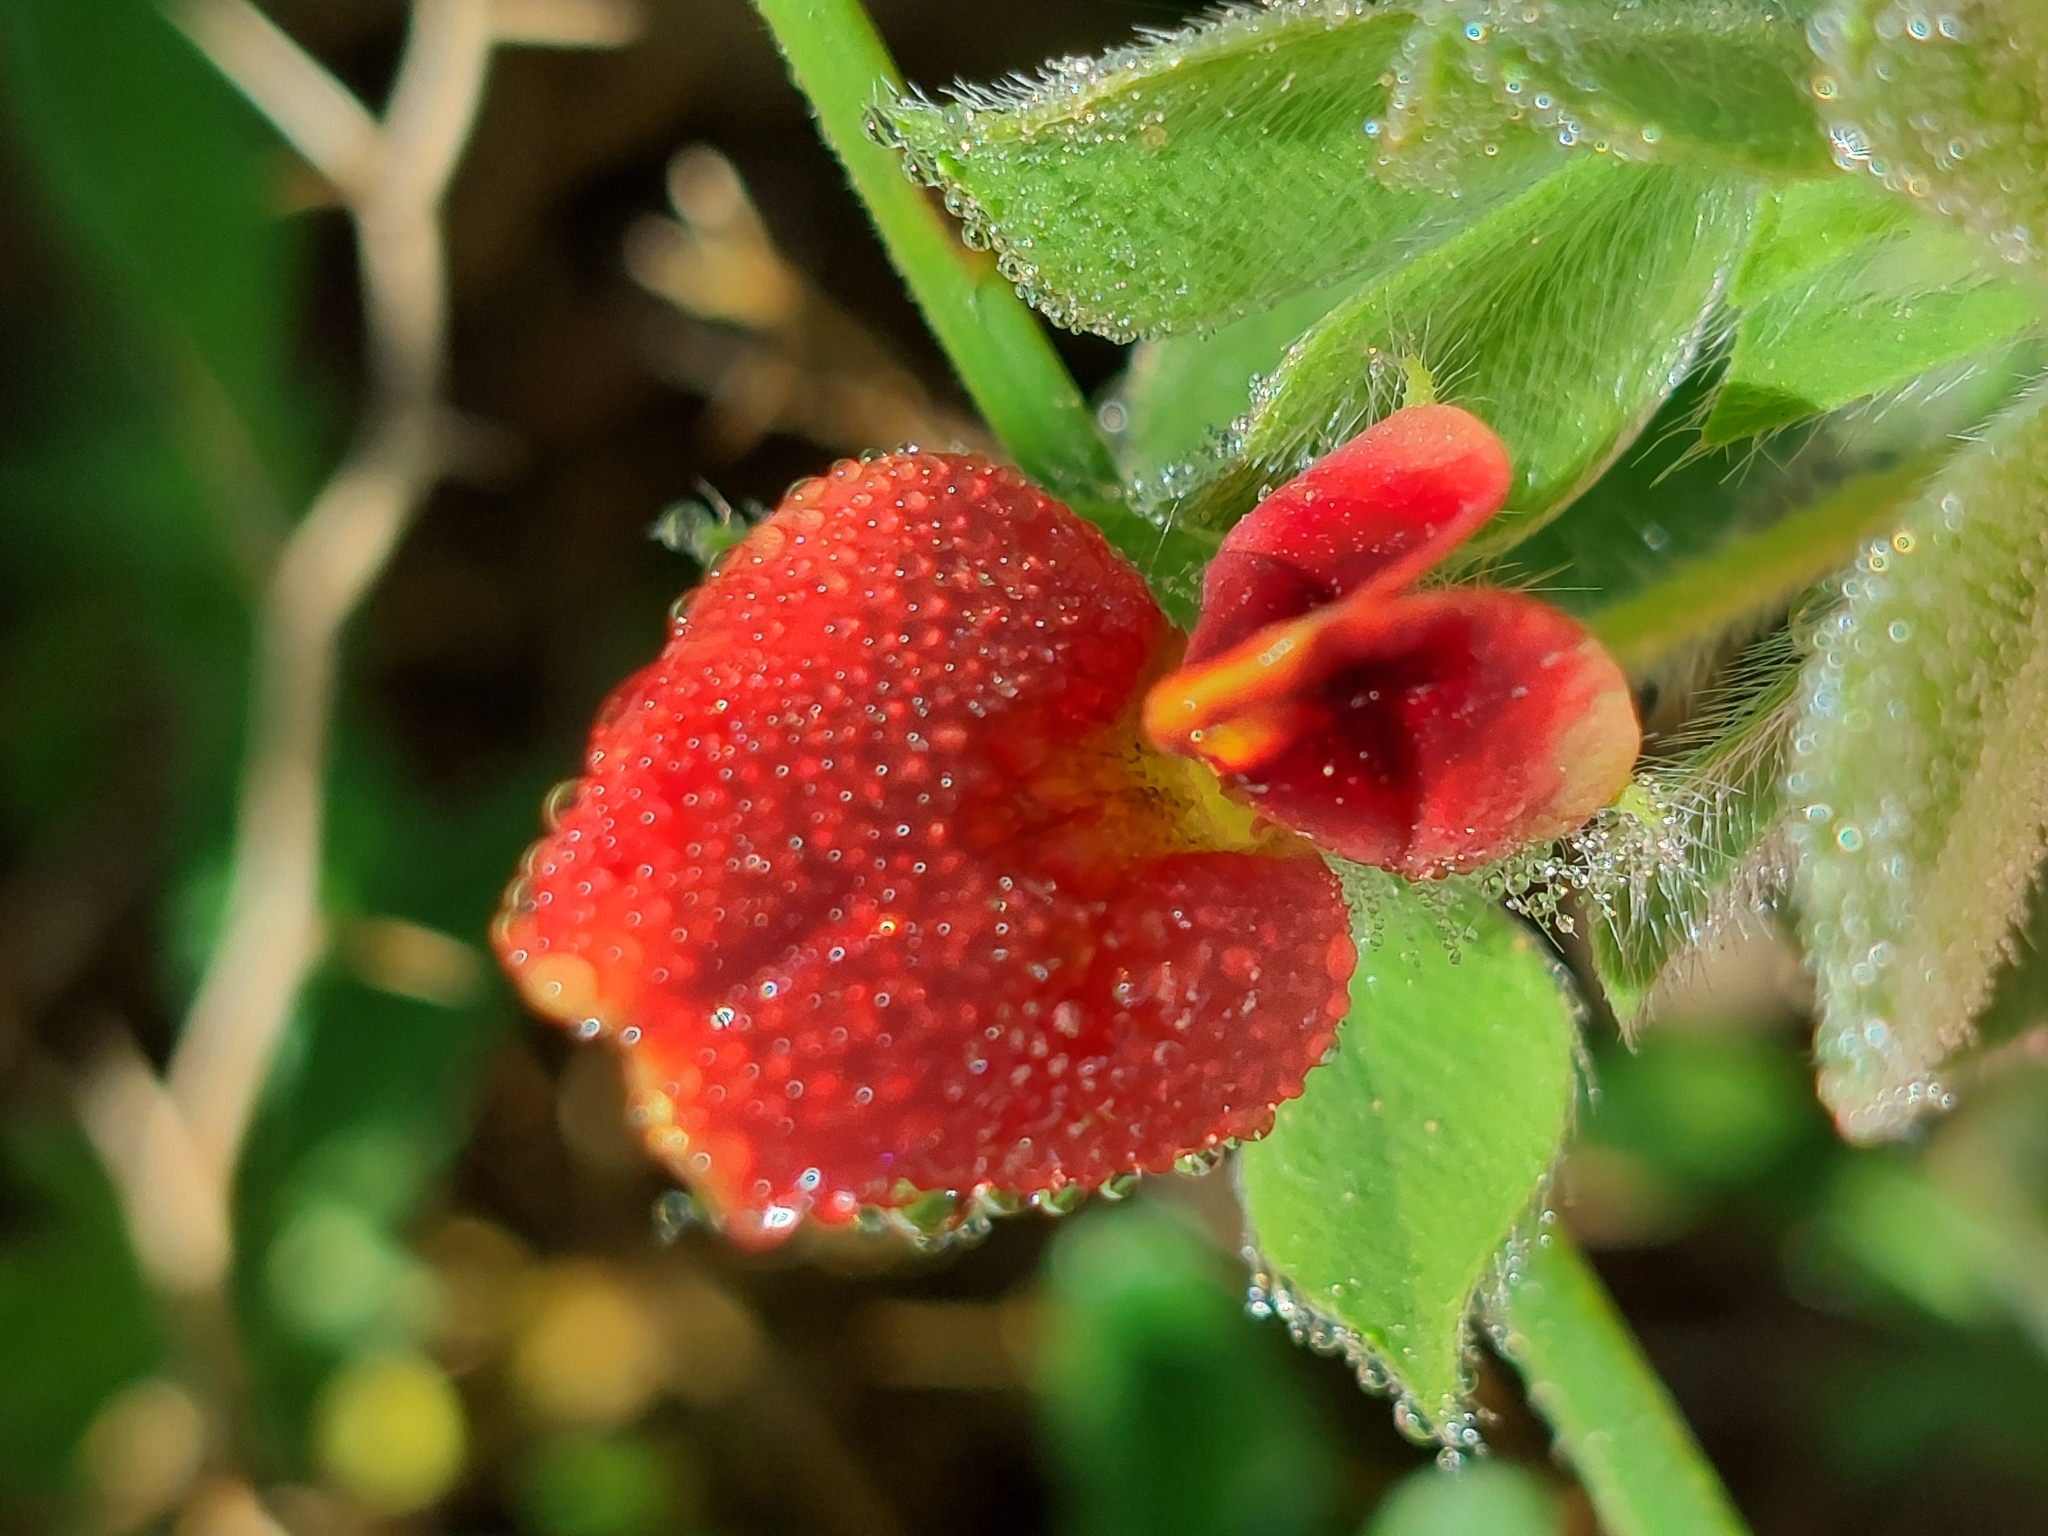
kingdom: Plantae
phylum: Tracheophyta
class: Magnoliopsida
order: Fabales
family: Fabaceae
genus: Lotus
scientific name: Lotus tetragonolobus
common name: Asparagus-pea
